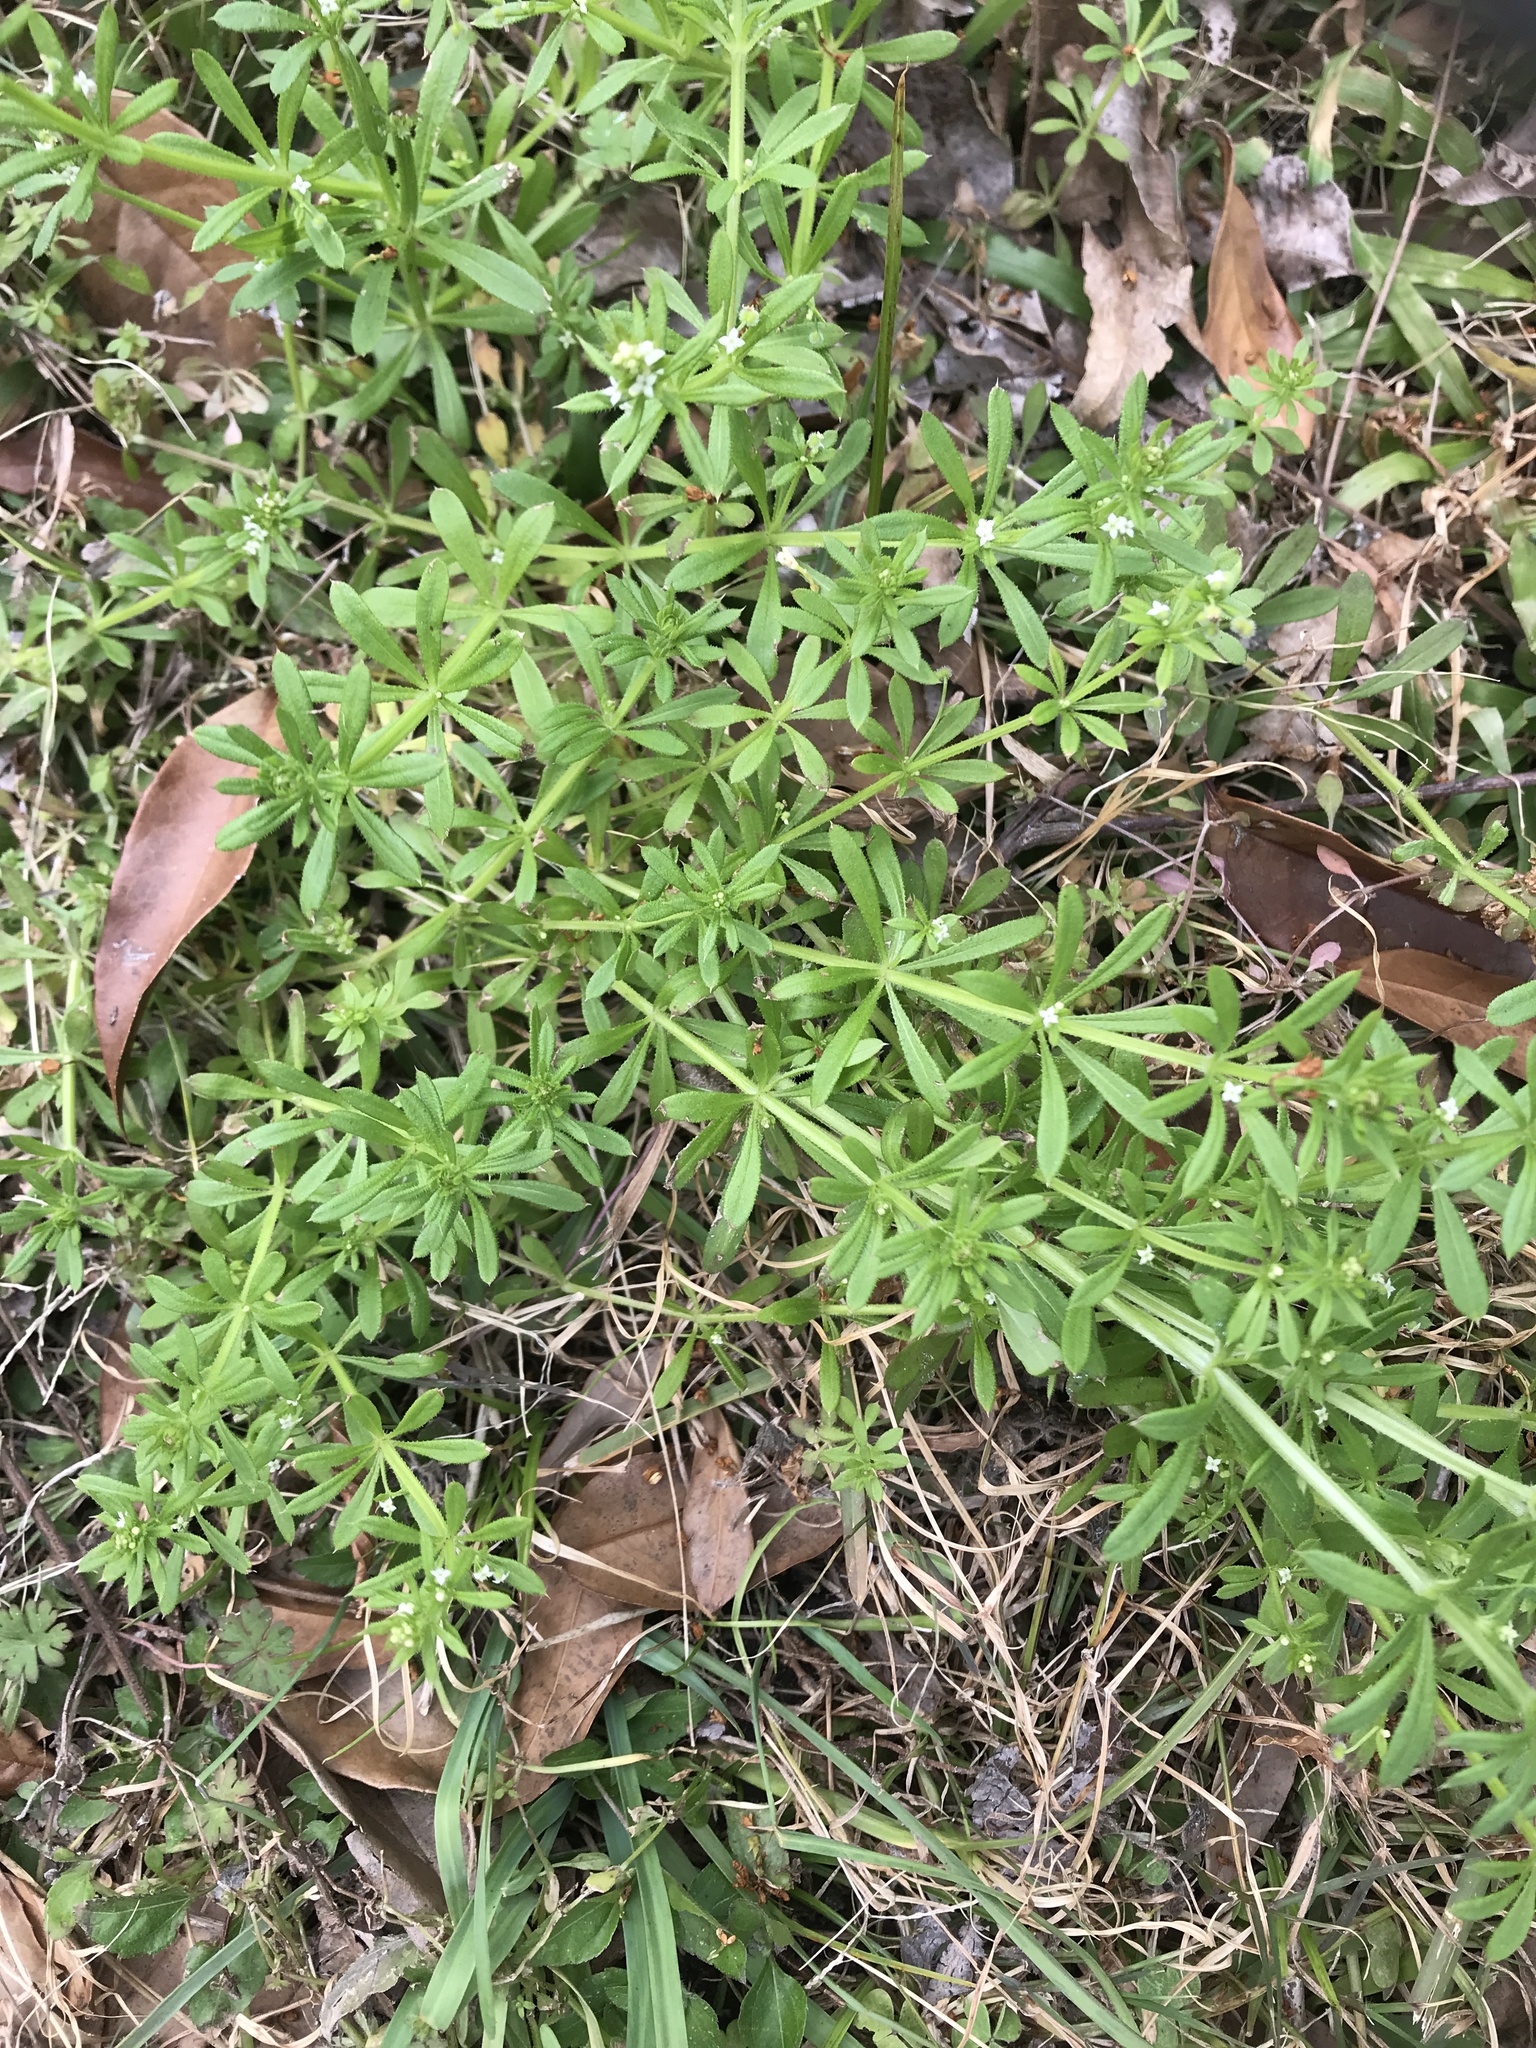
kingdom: Plantae
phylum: Tracheophyta
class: Magnoliopsida
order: Gentianales
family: Rubiaceae
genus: Galium
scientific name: Galium aparine
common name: Cleavers
